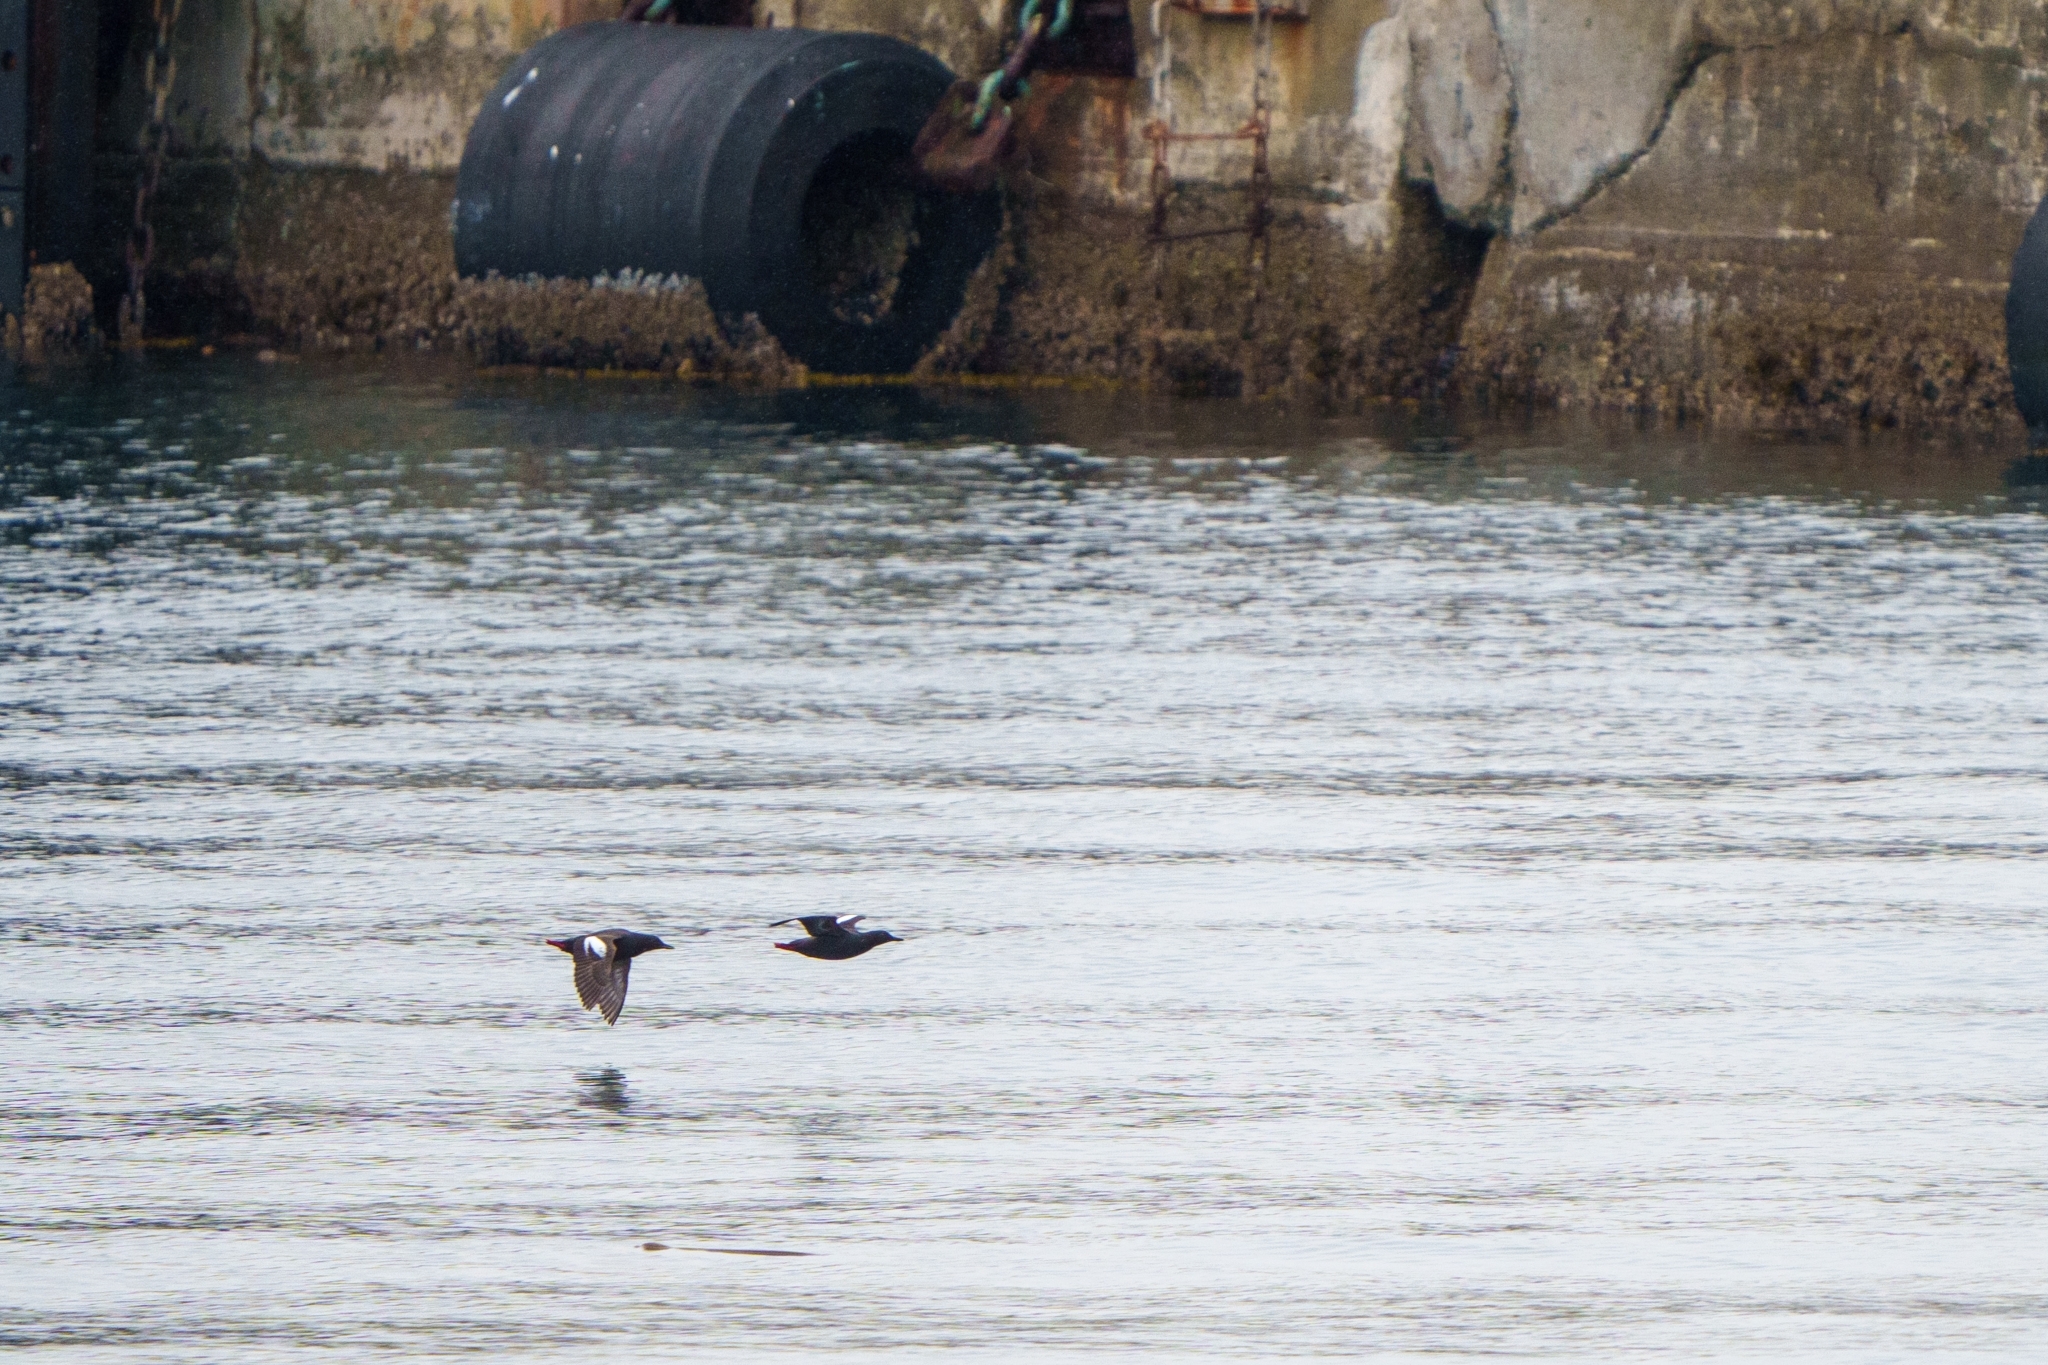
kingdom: Animalia
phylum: Chordata
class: Aves
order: Charadriiformes
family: Alcidae
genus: Cepphus
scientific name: Cepphus columba
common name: Pigeon guillemot
